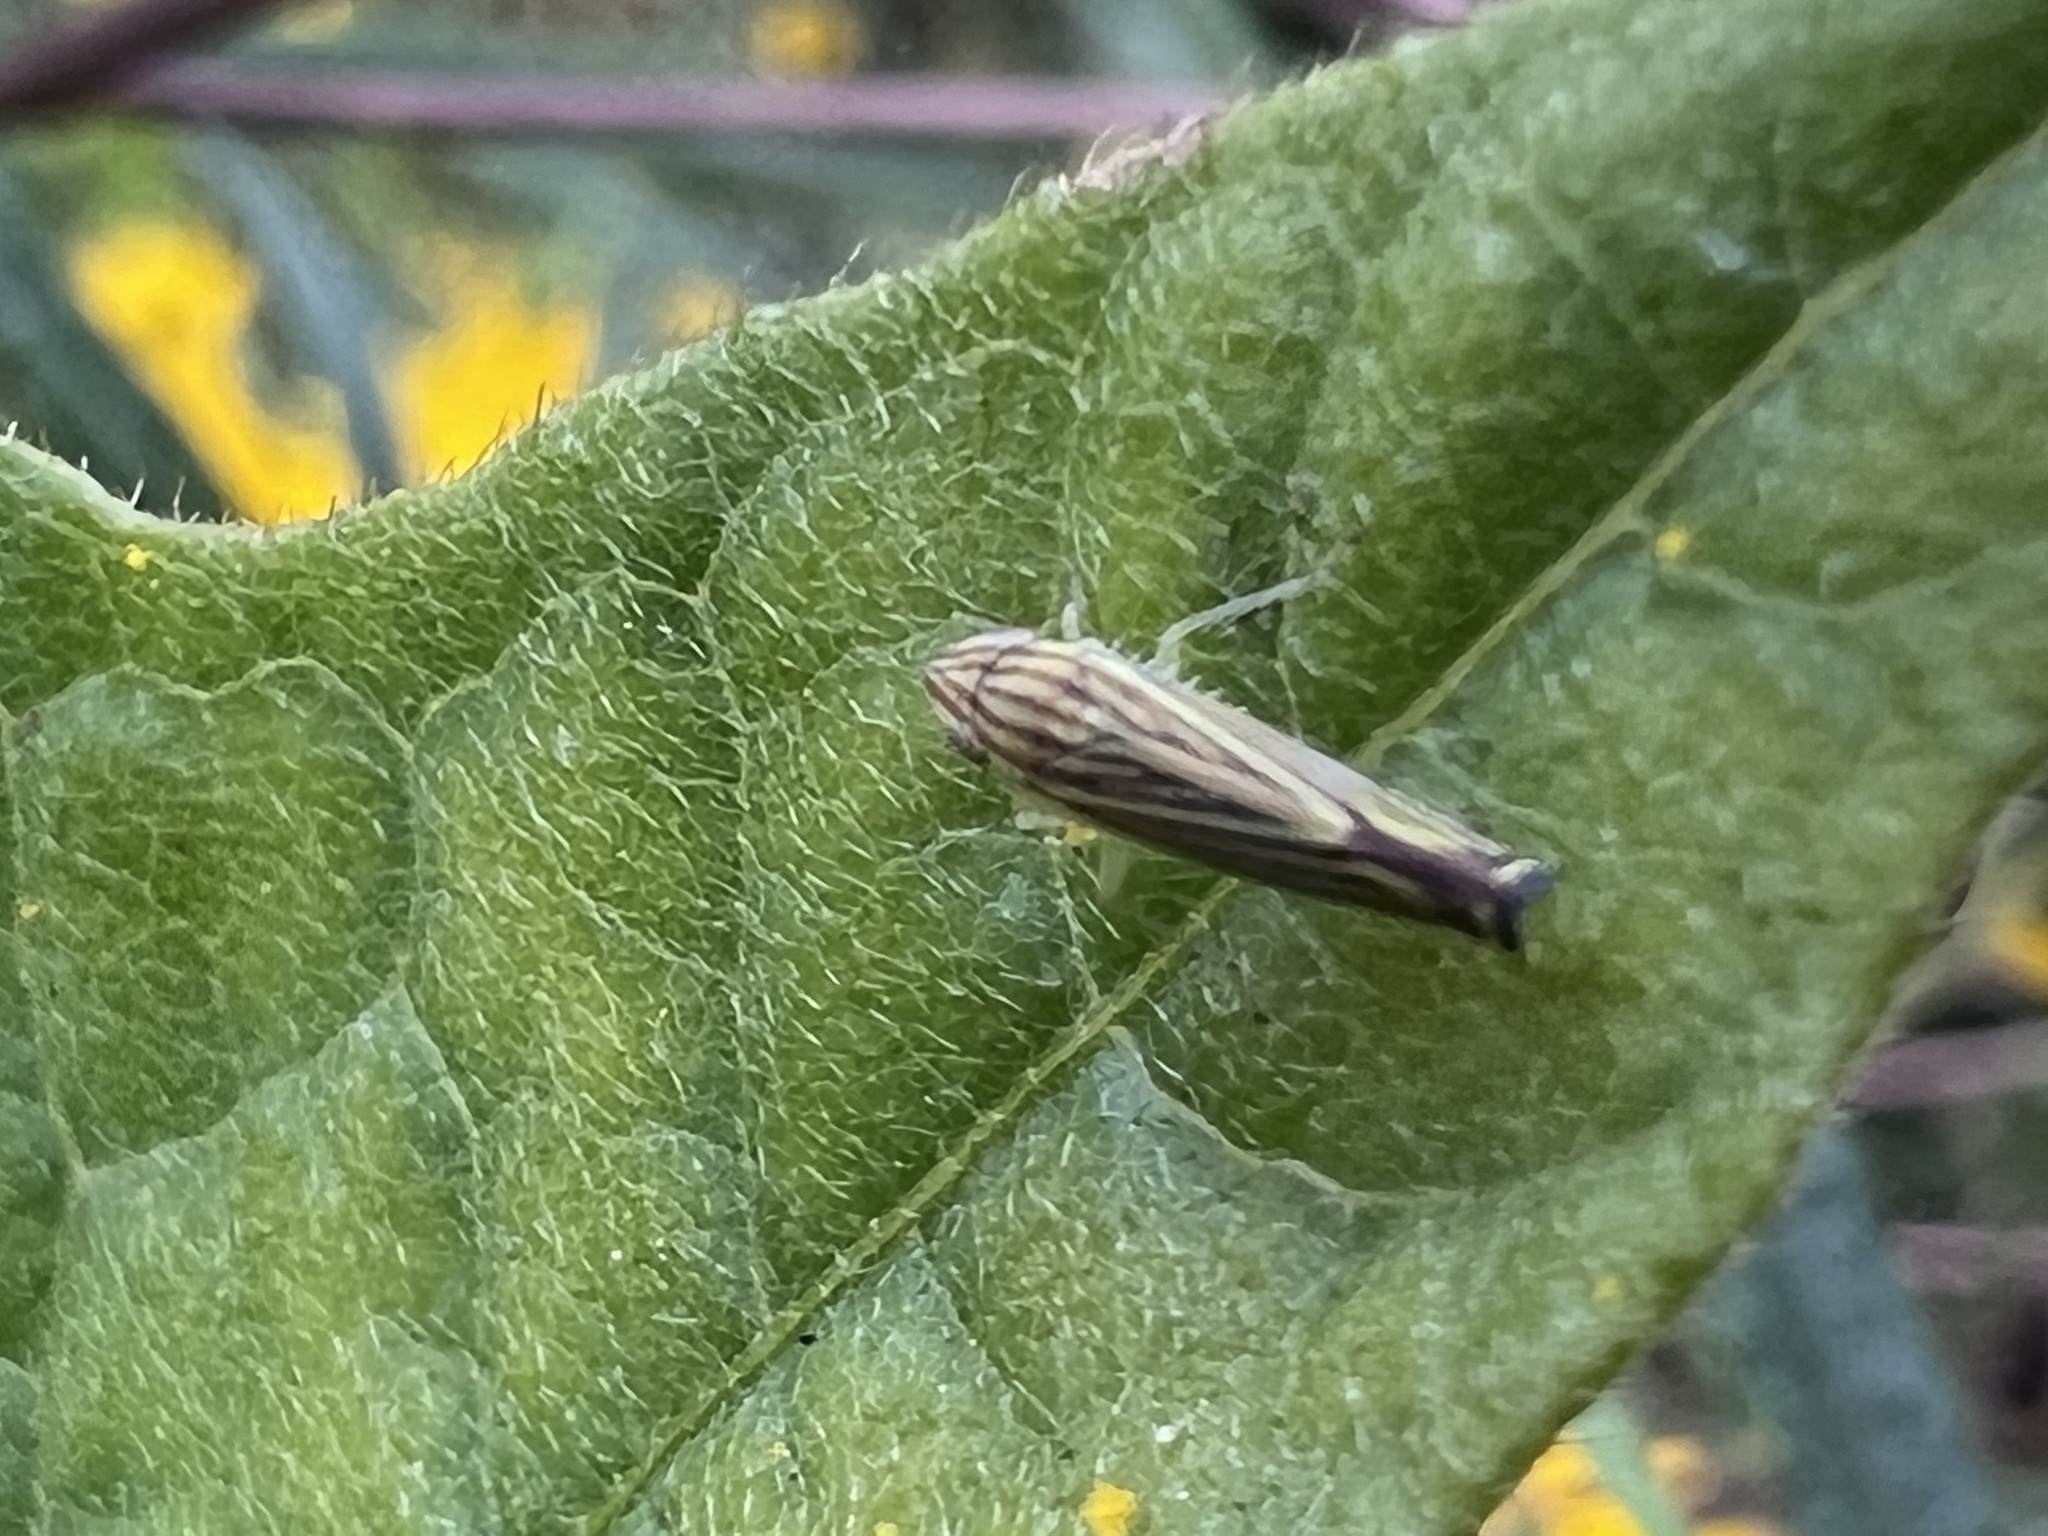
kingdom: Animalia
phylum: Arthropoda
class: Insecta
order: Hemiptera
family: Cicadellidae
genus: Sibovia
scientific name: Sibovia occatoria
